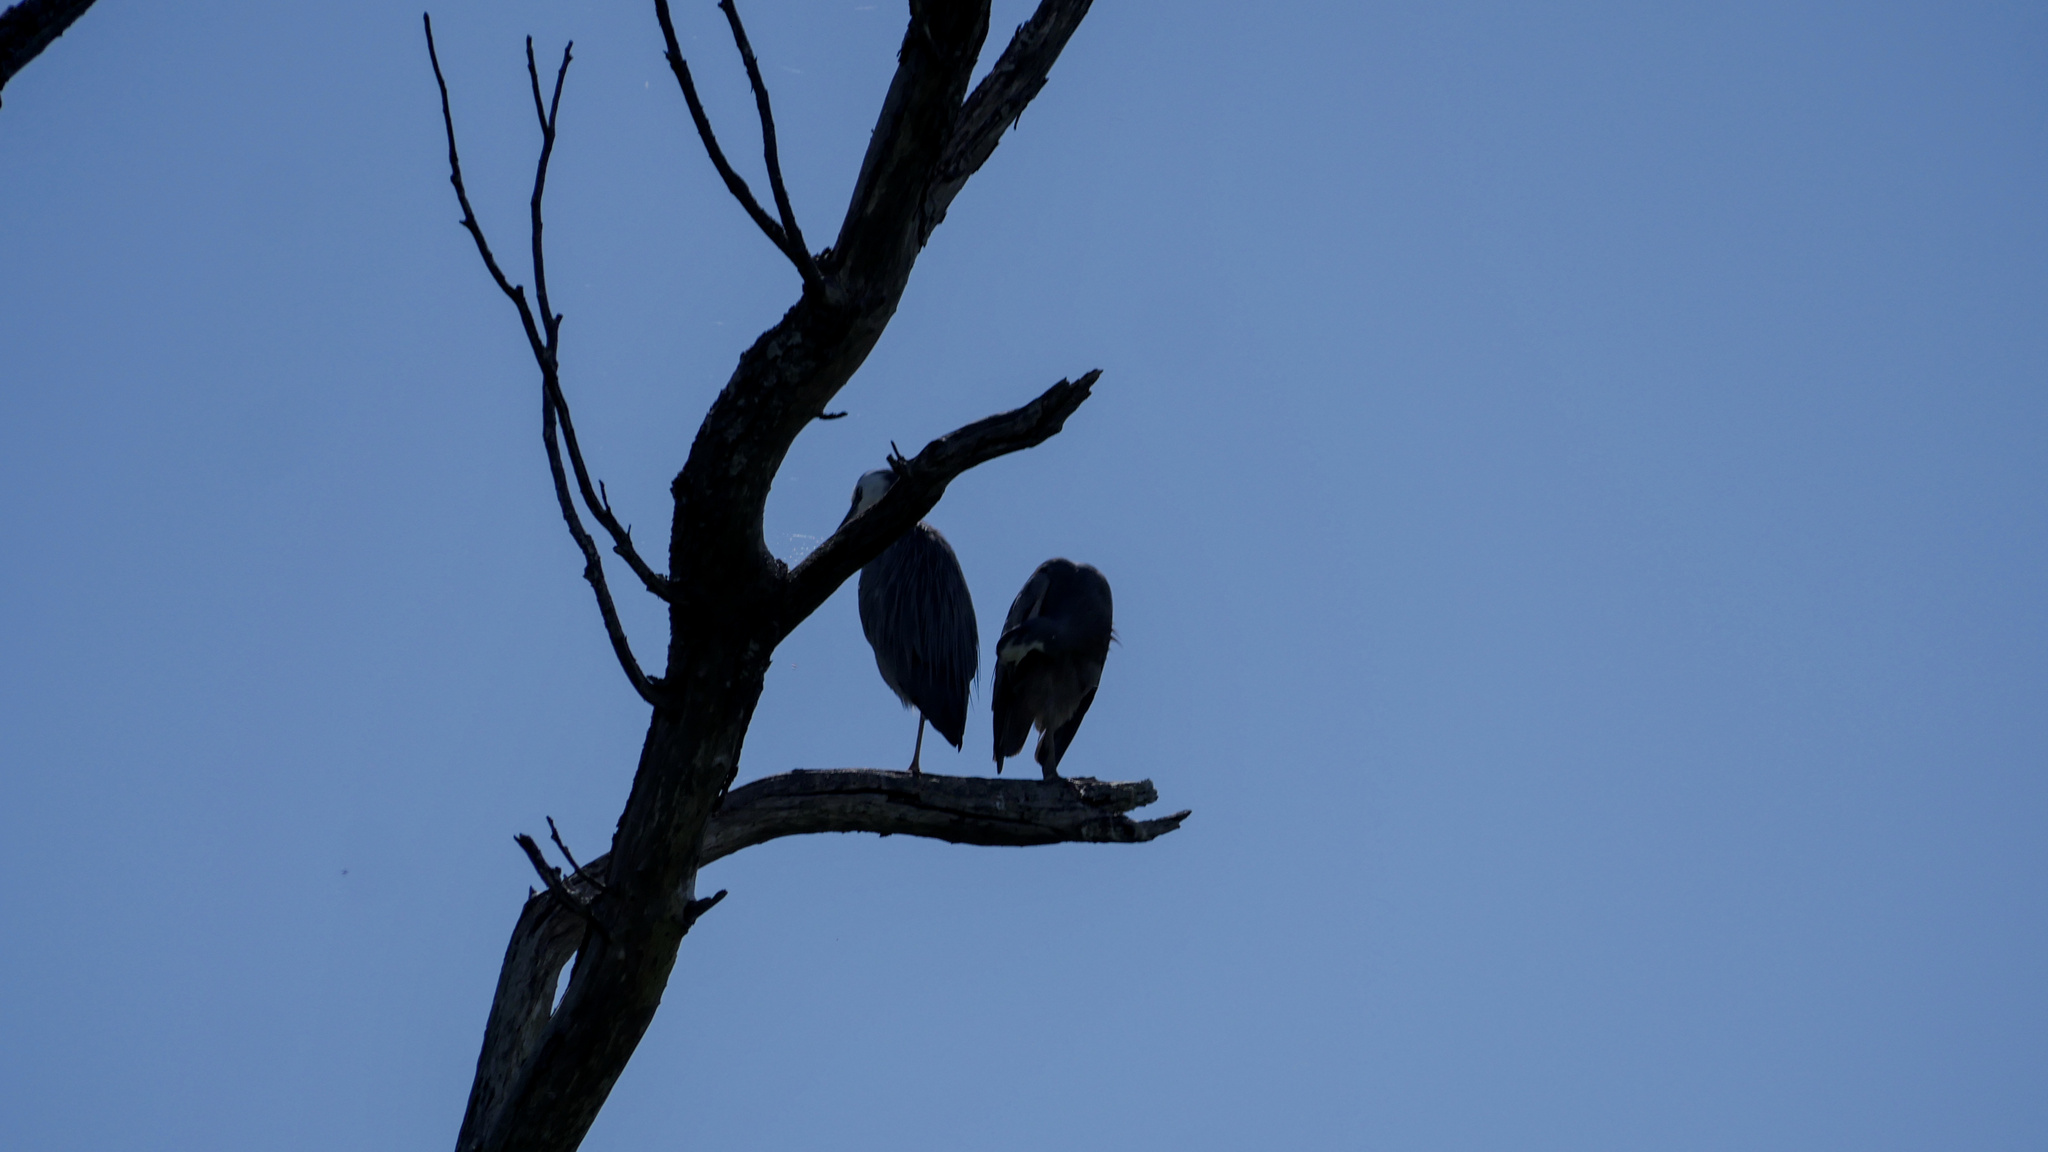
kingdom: Animalia
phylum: Chordata
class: Aves
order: Pelecaniformes
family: Ardeidae
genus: Egretta
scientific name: Egretta novaehollandiae
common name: White-faced heron
